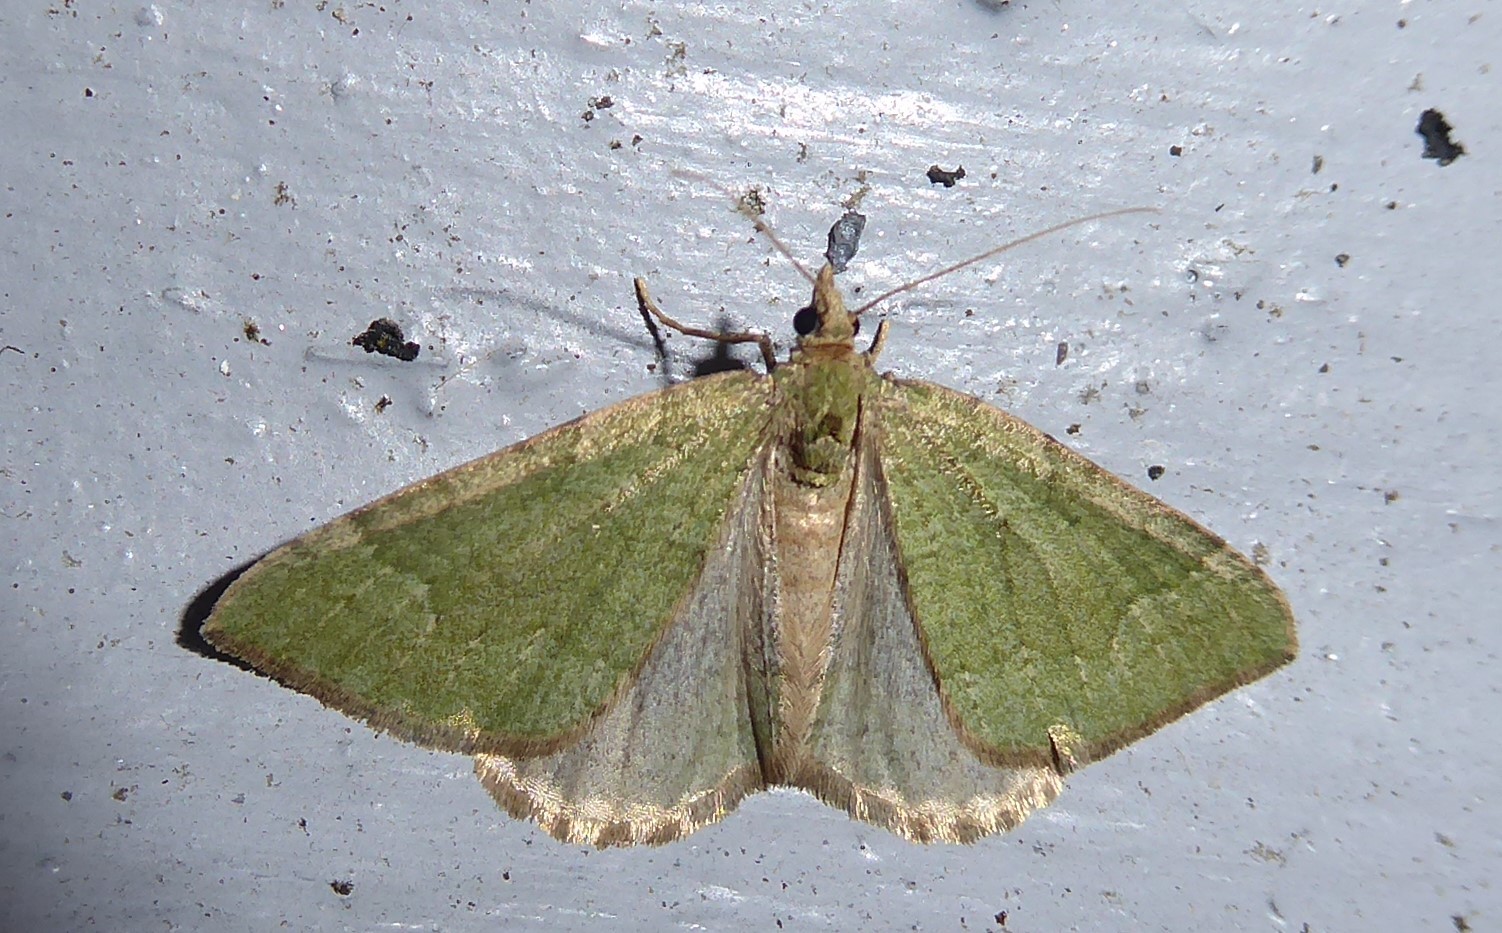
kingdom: Animalia
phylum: Arthropoda
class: Insecta
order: Lepidoptera
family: Geometridae
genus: Epyaxa
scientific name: Epyaxa rosearia
